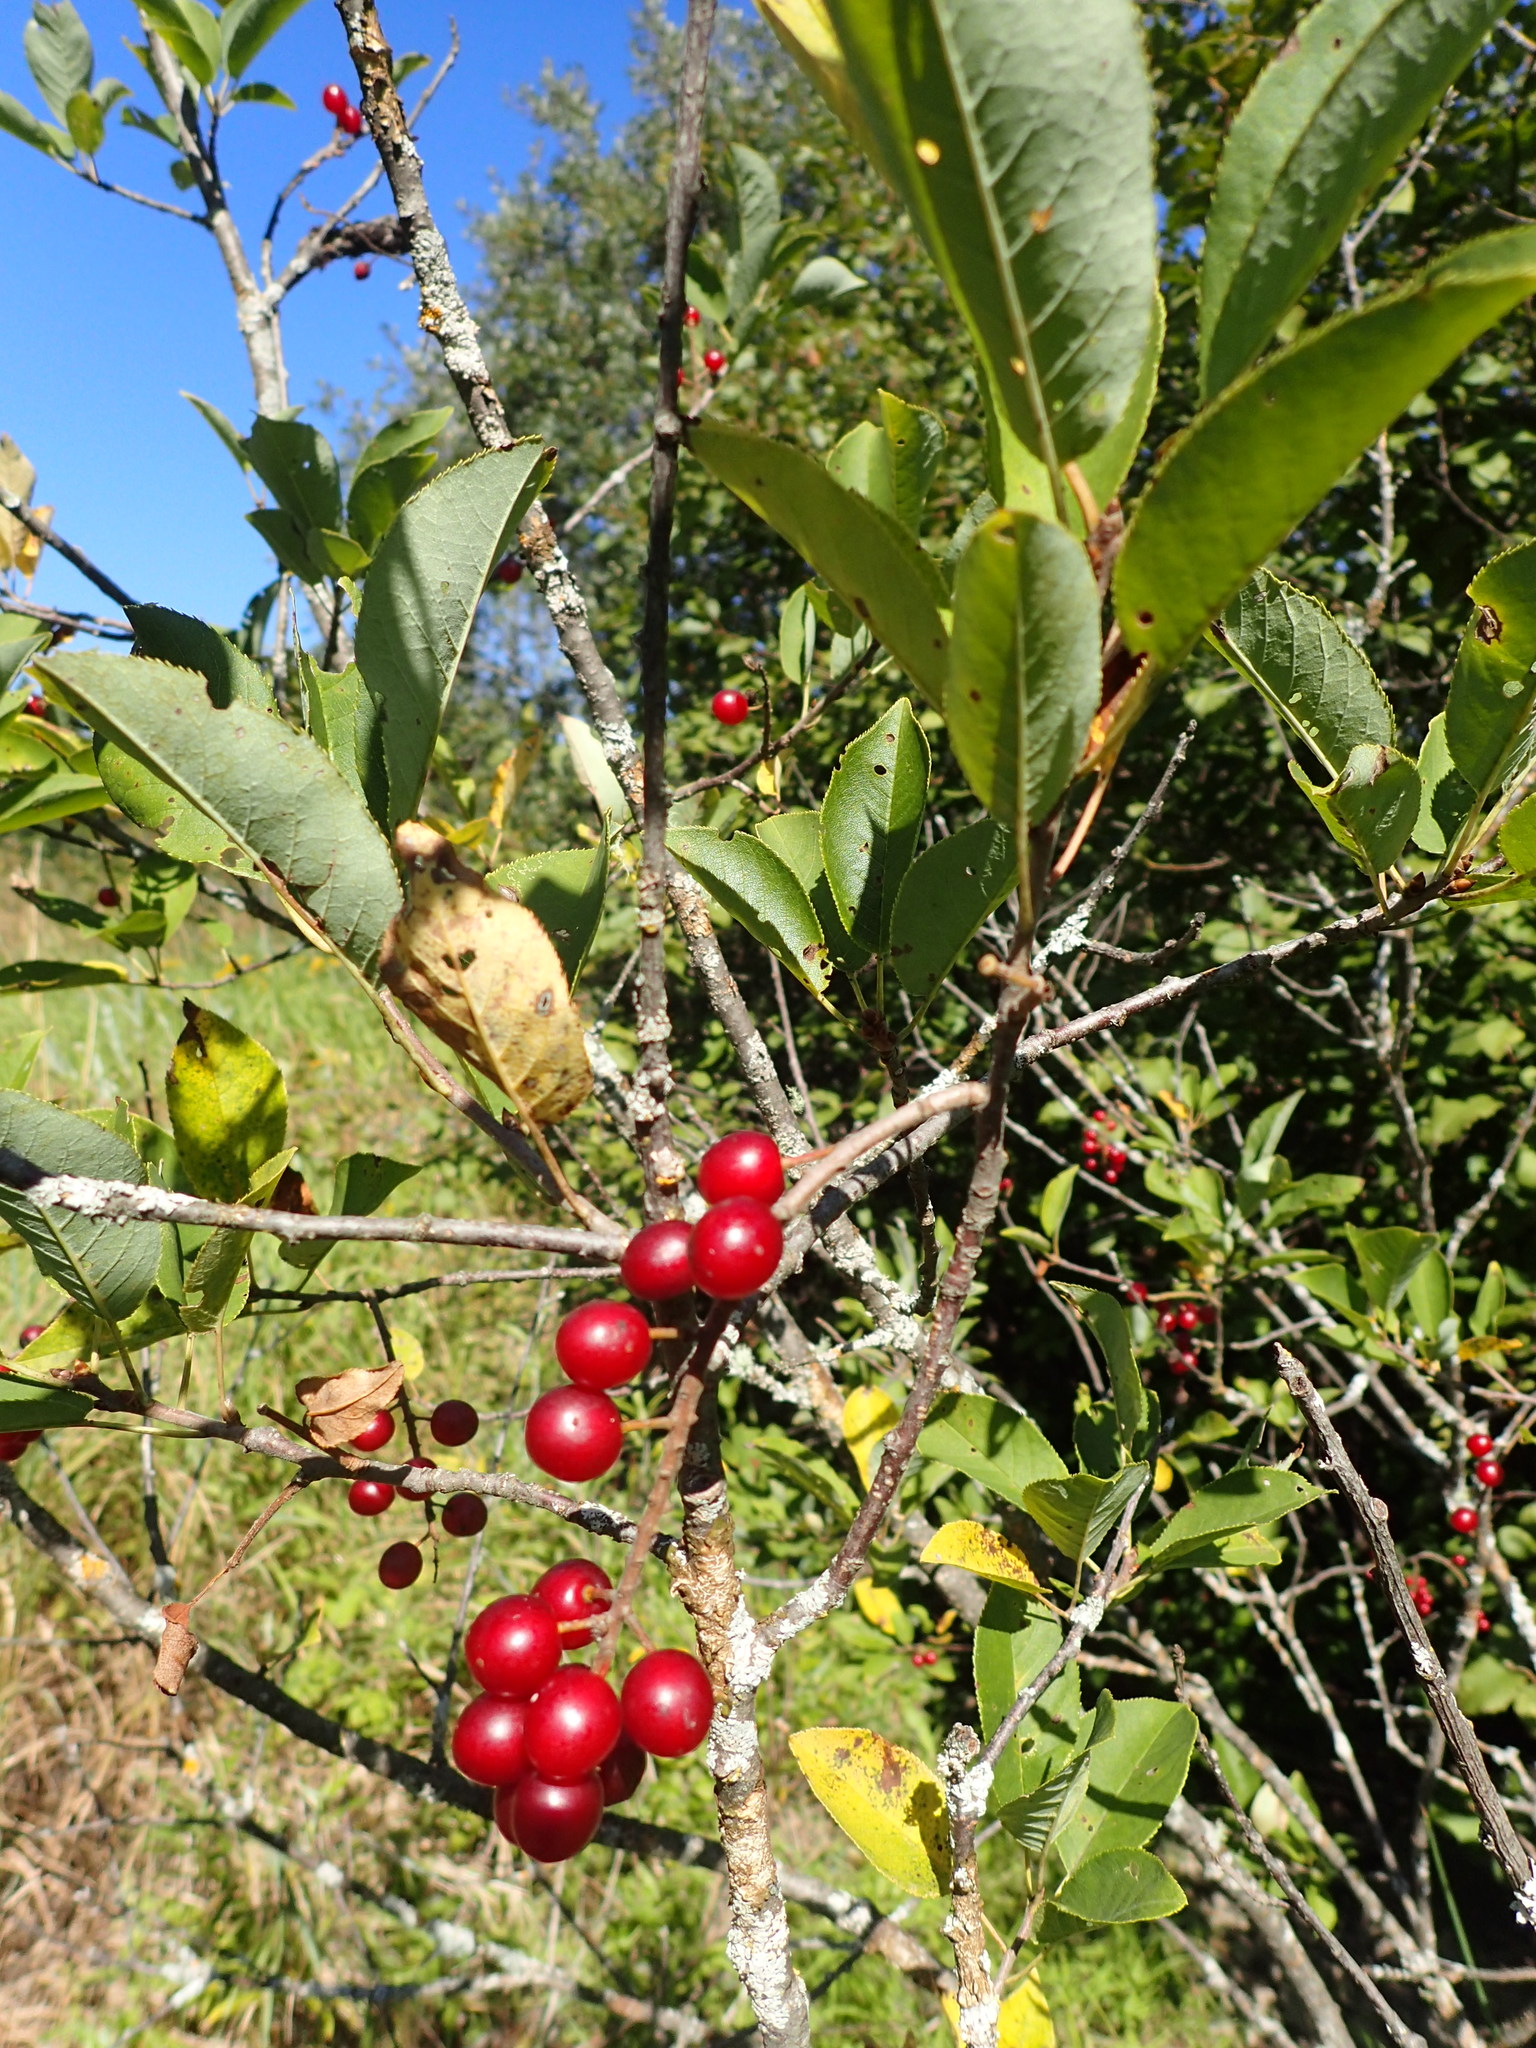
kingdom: Plantae
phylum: Tracheophyta
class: Magnoliopsida
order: Rosales
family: Rosaceae
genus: Prunus
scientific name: Prunus virginiana
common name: Chokecherry
